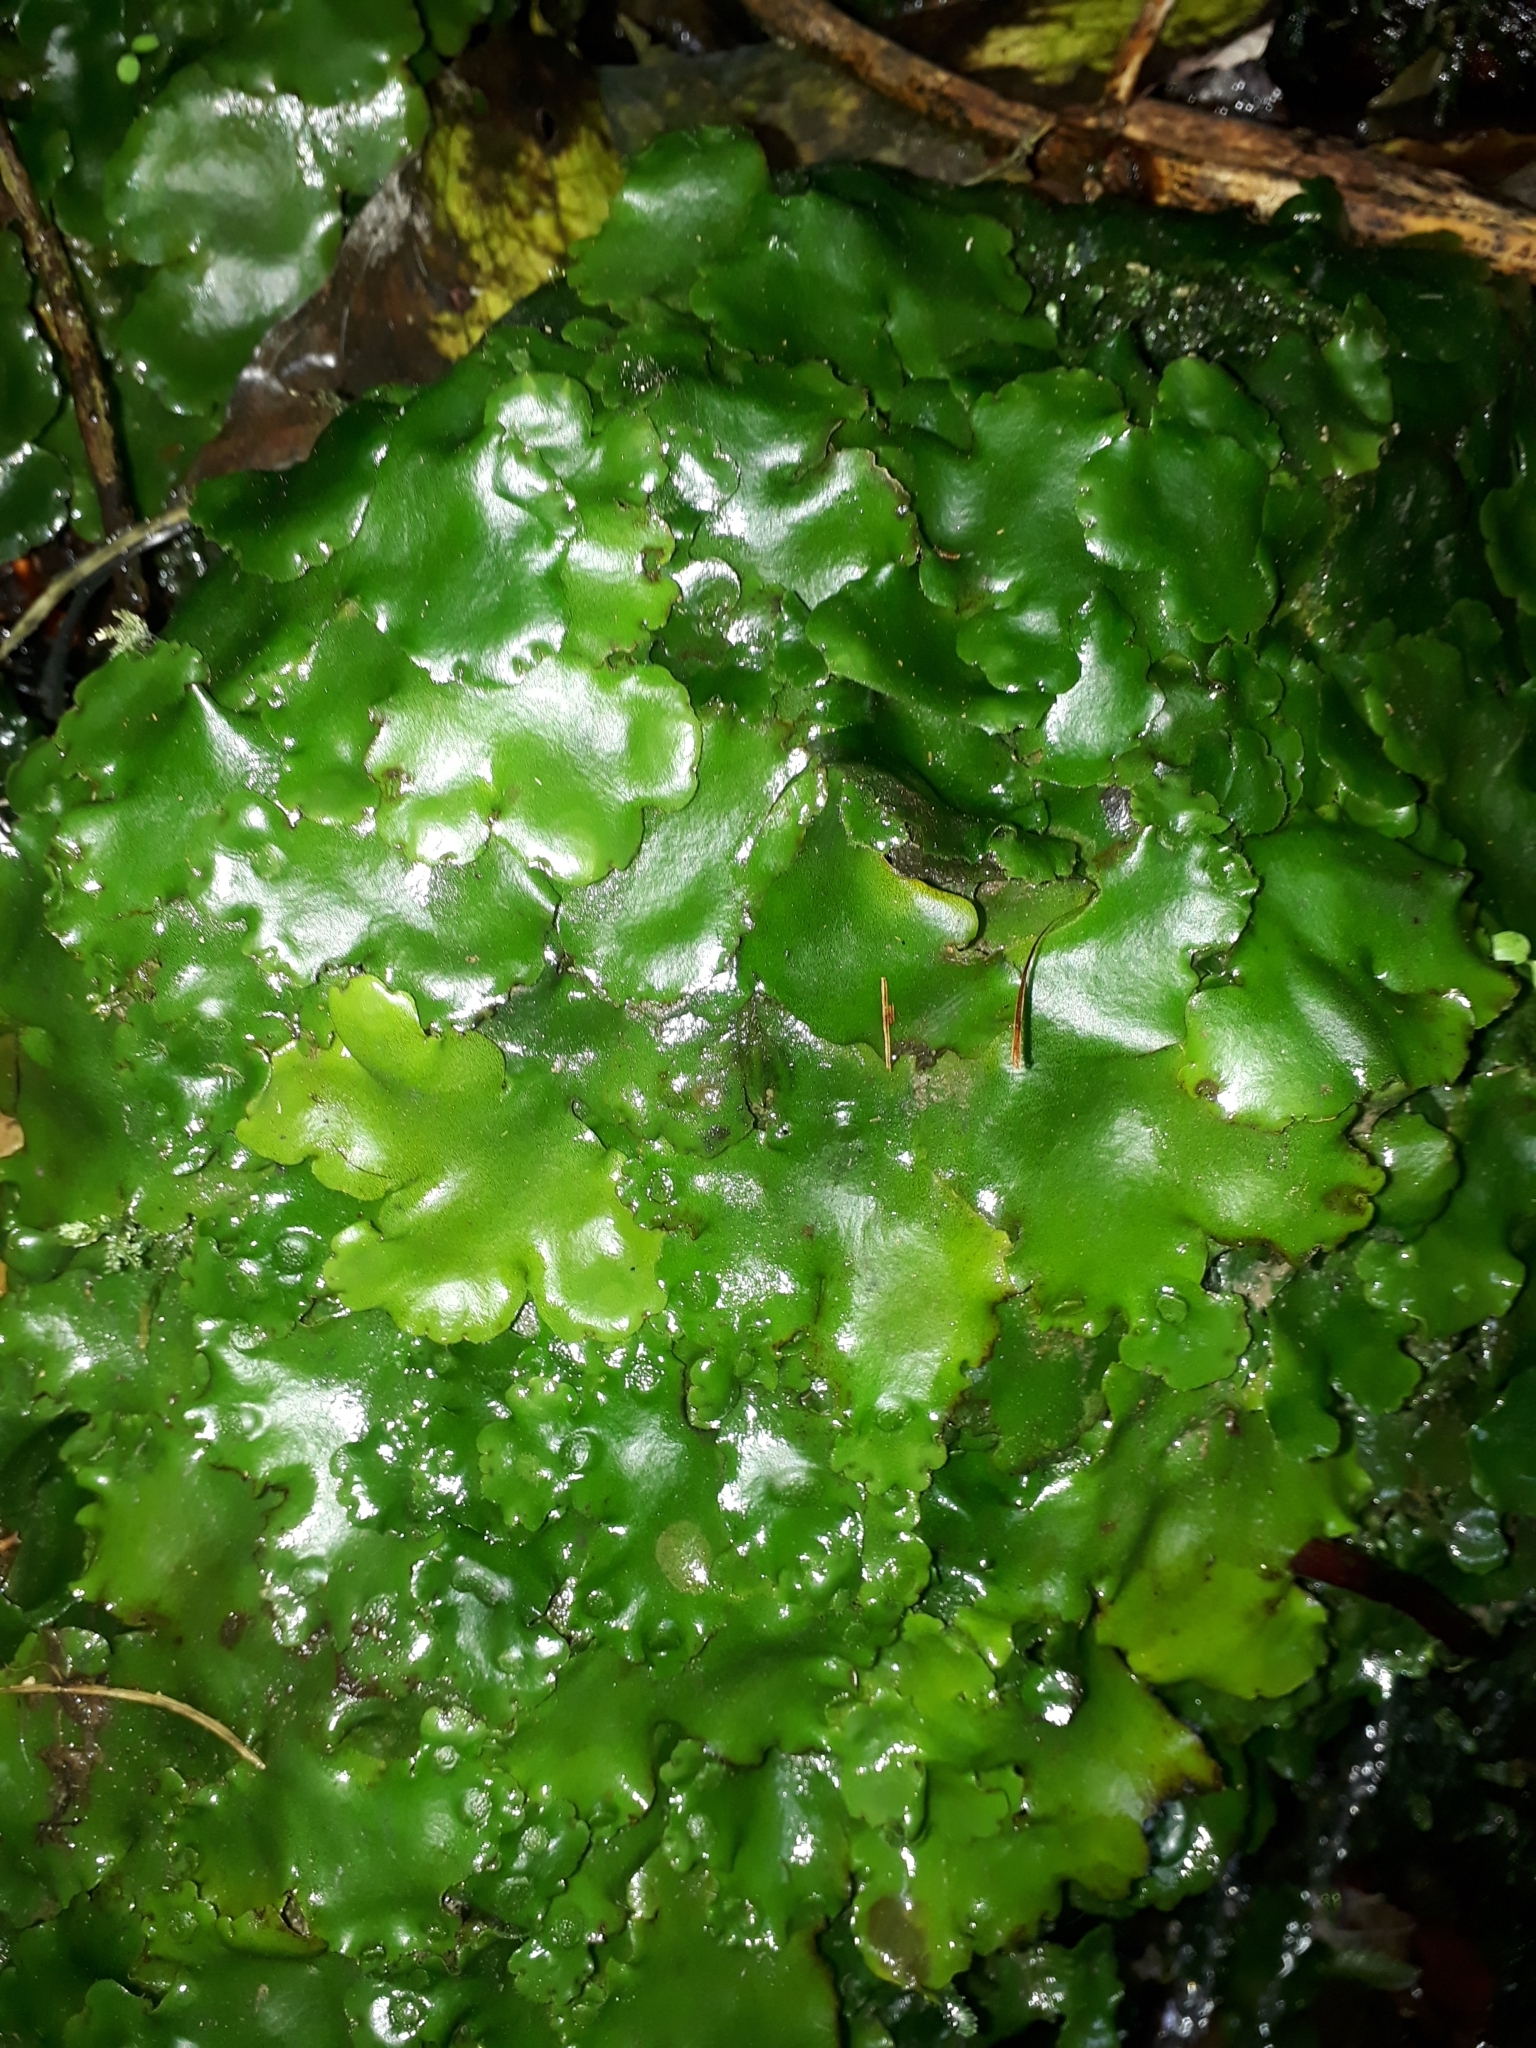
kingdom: Plantae
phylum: Marchantiophyta
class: Marchantiopsida
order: Marchantiales
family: Monocleaceae
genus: Monoclea
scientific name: Monoclea forsteri
